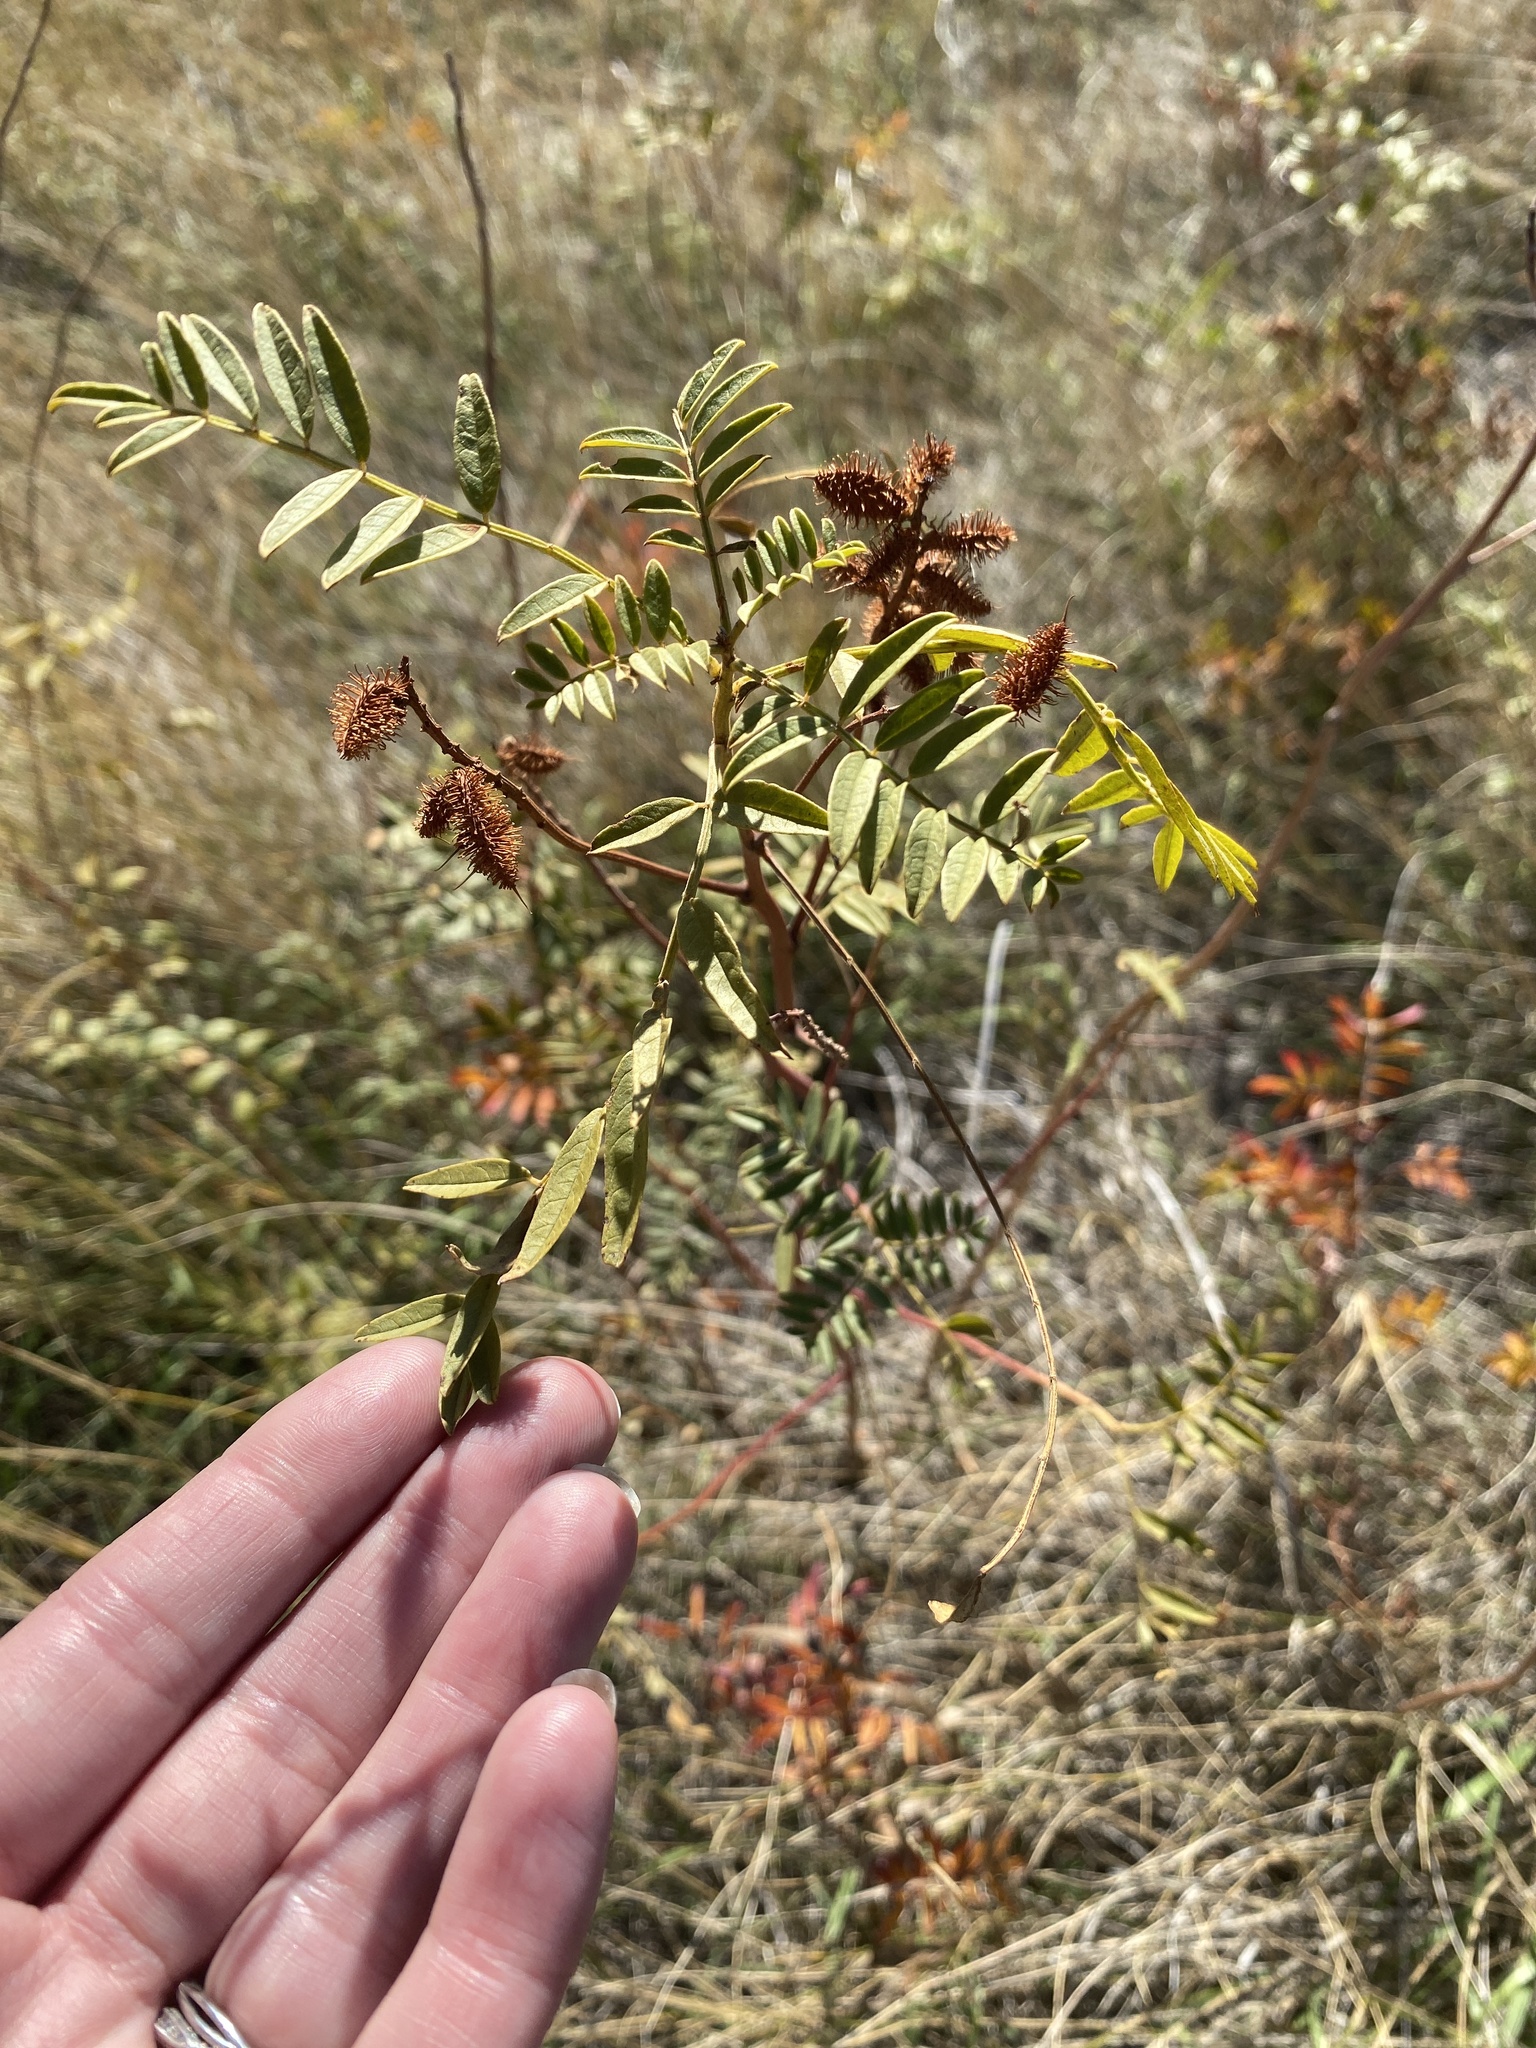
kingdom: Plantae
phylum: Tracheophyta
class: Magnoliopsida
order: Fabales
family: Fabaceae
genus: Glycyrrhiza
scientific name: Glycyrrhiza lepidota
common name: American liquorice
